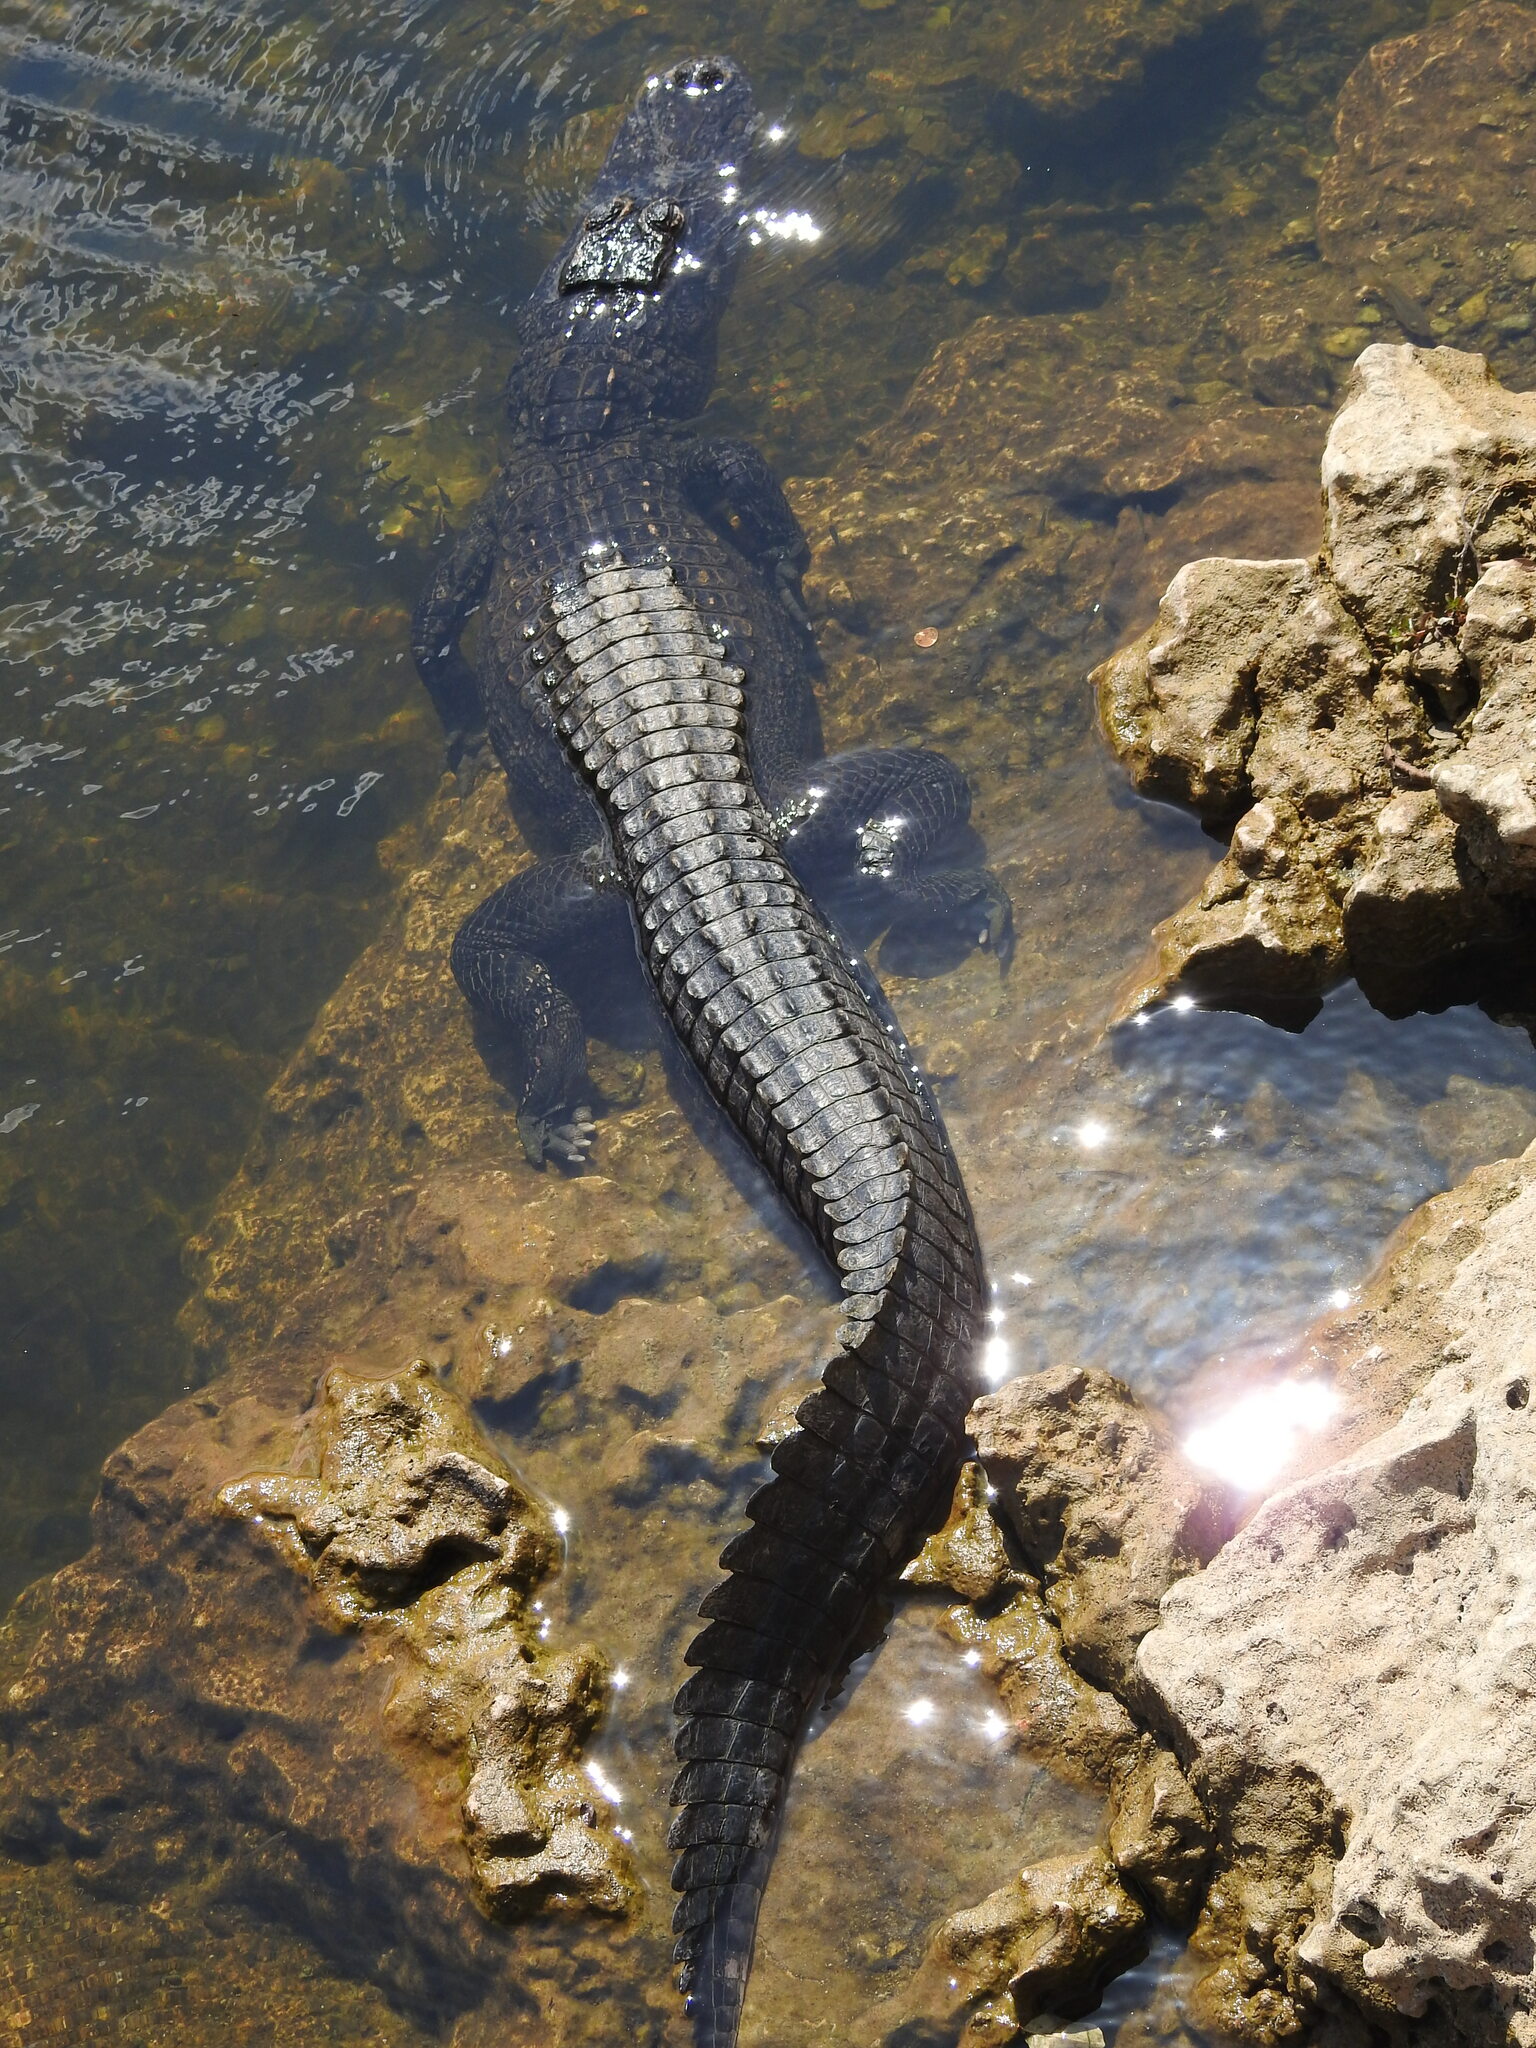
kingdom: Animalia
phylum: Chordata
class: Crocodylia
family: Alligatoridae
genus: Alligator
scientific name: Alligator mississippiensis
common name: American alligator
